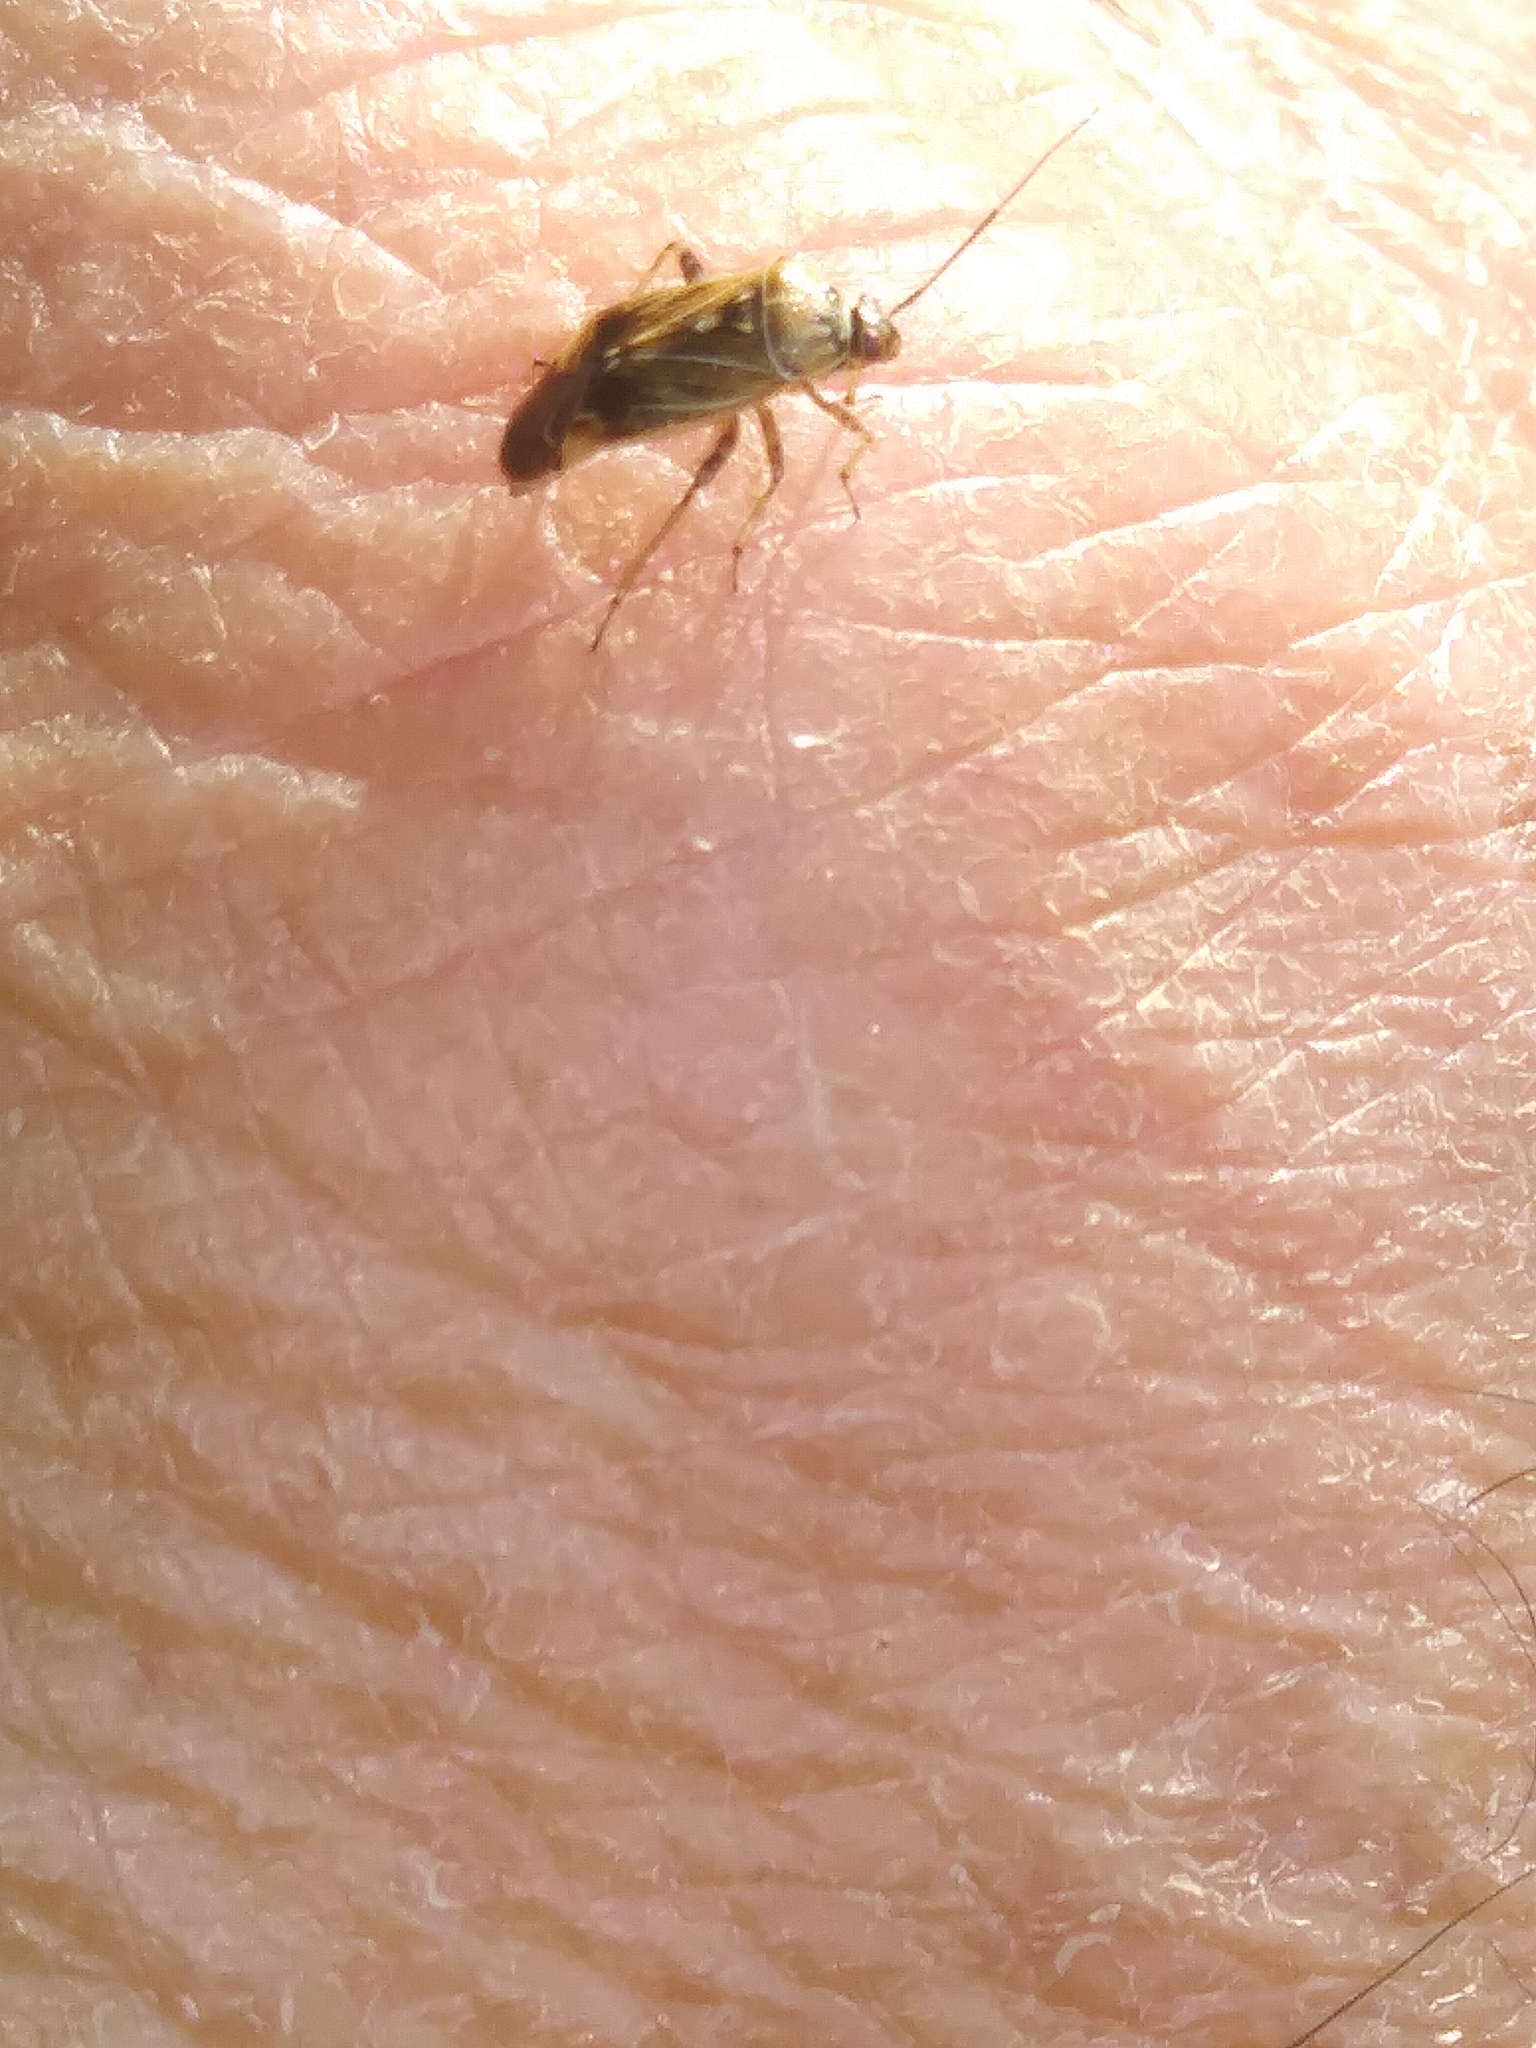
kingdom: Animalia
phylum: Arthropoda
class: Insecta
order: Hemiptera
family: Miridae
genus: Lygus
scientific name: Lygus lineolaris
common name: North american tarnished plant bug
